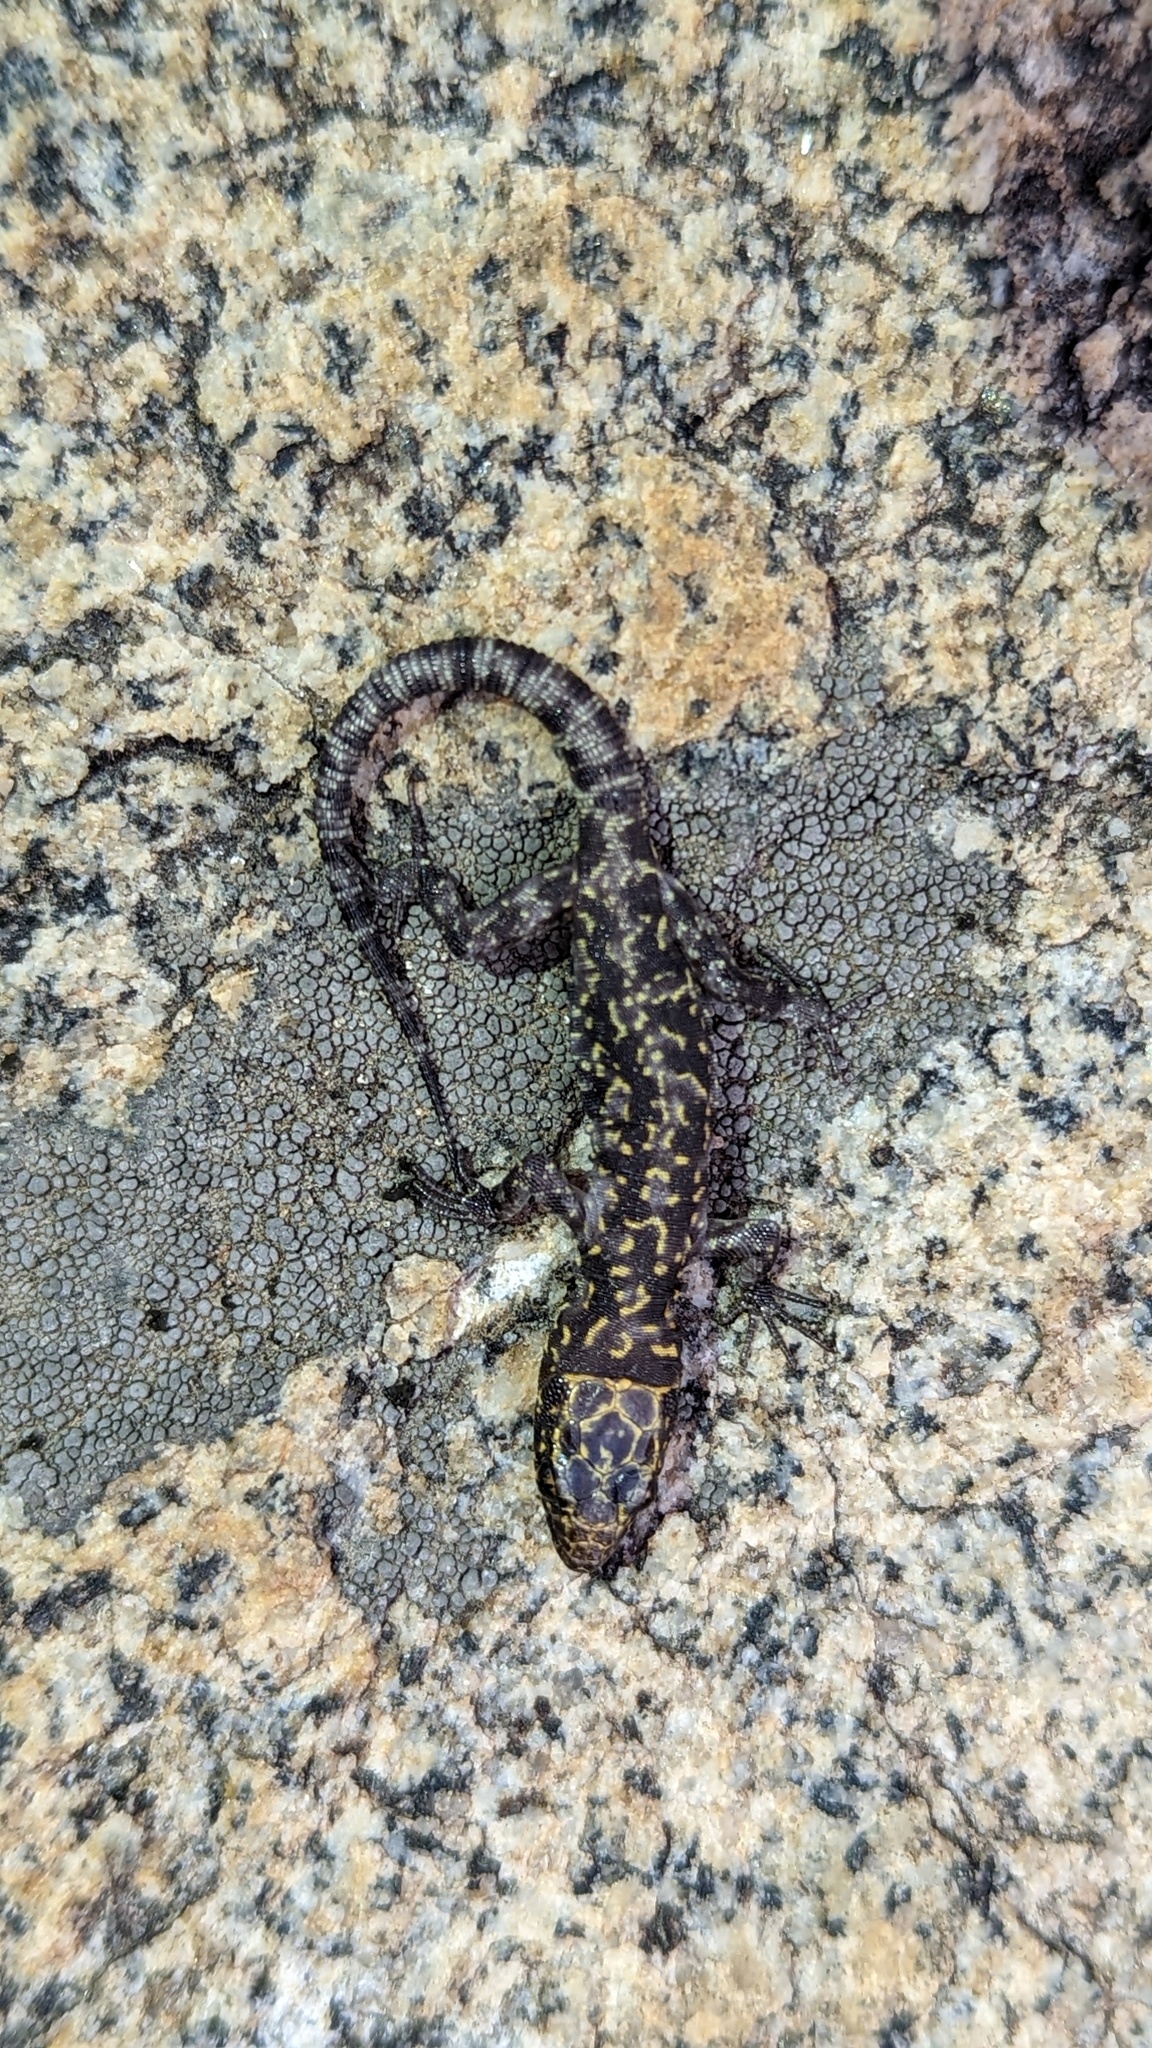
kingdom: Animalia
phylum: Chordata
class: Squamata
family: Xantusiidae
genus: Xantusia
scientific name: Xantusia henshawi
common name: Granite night lizard
